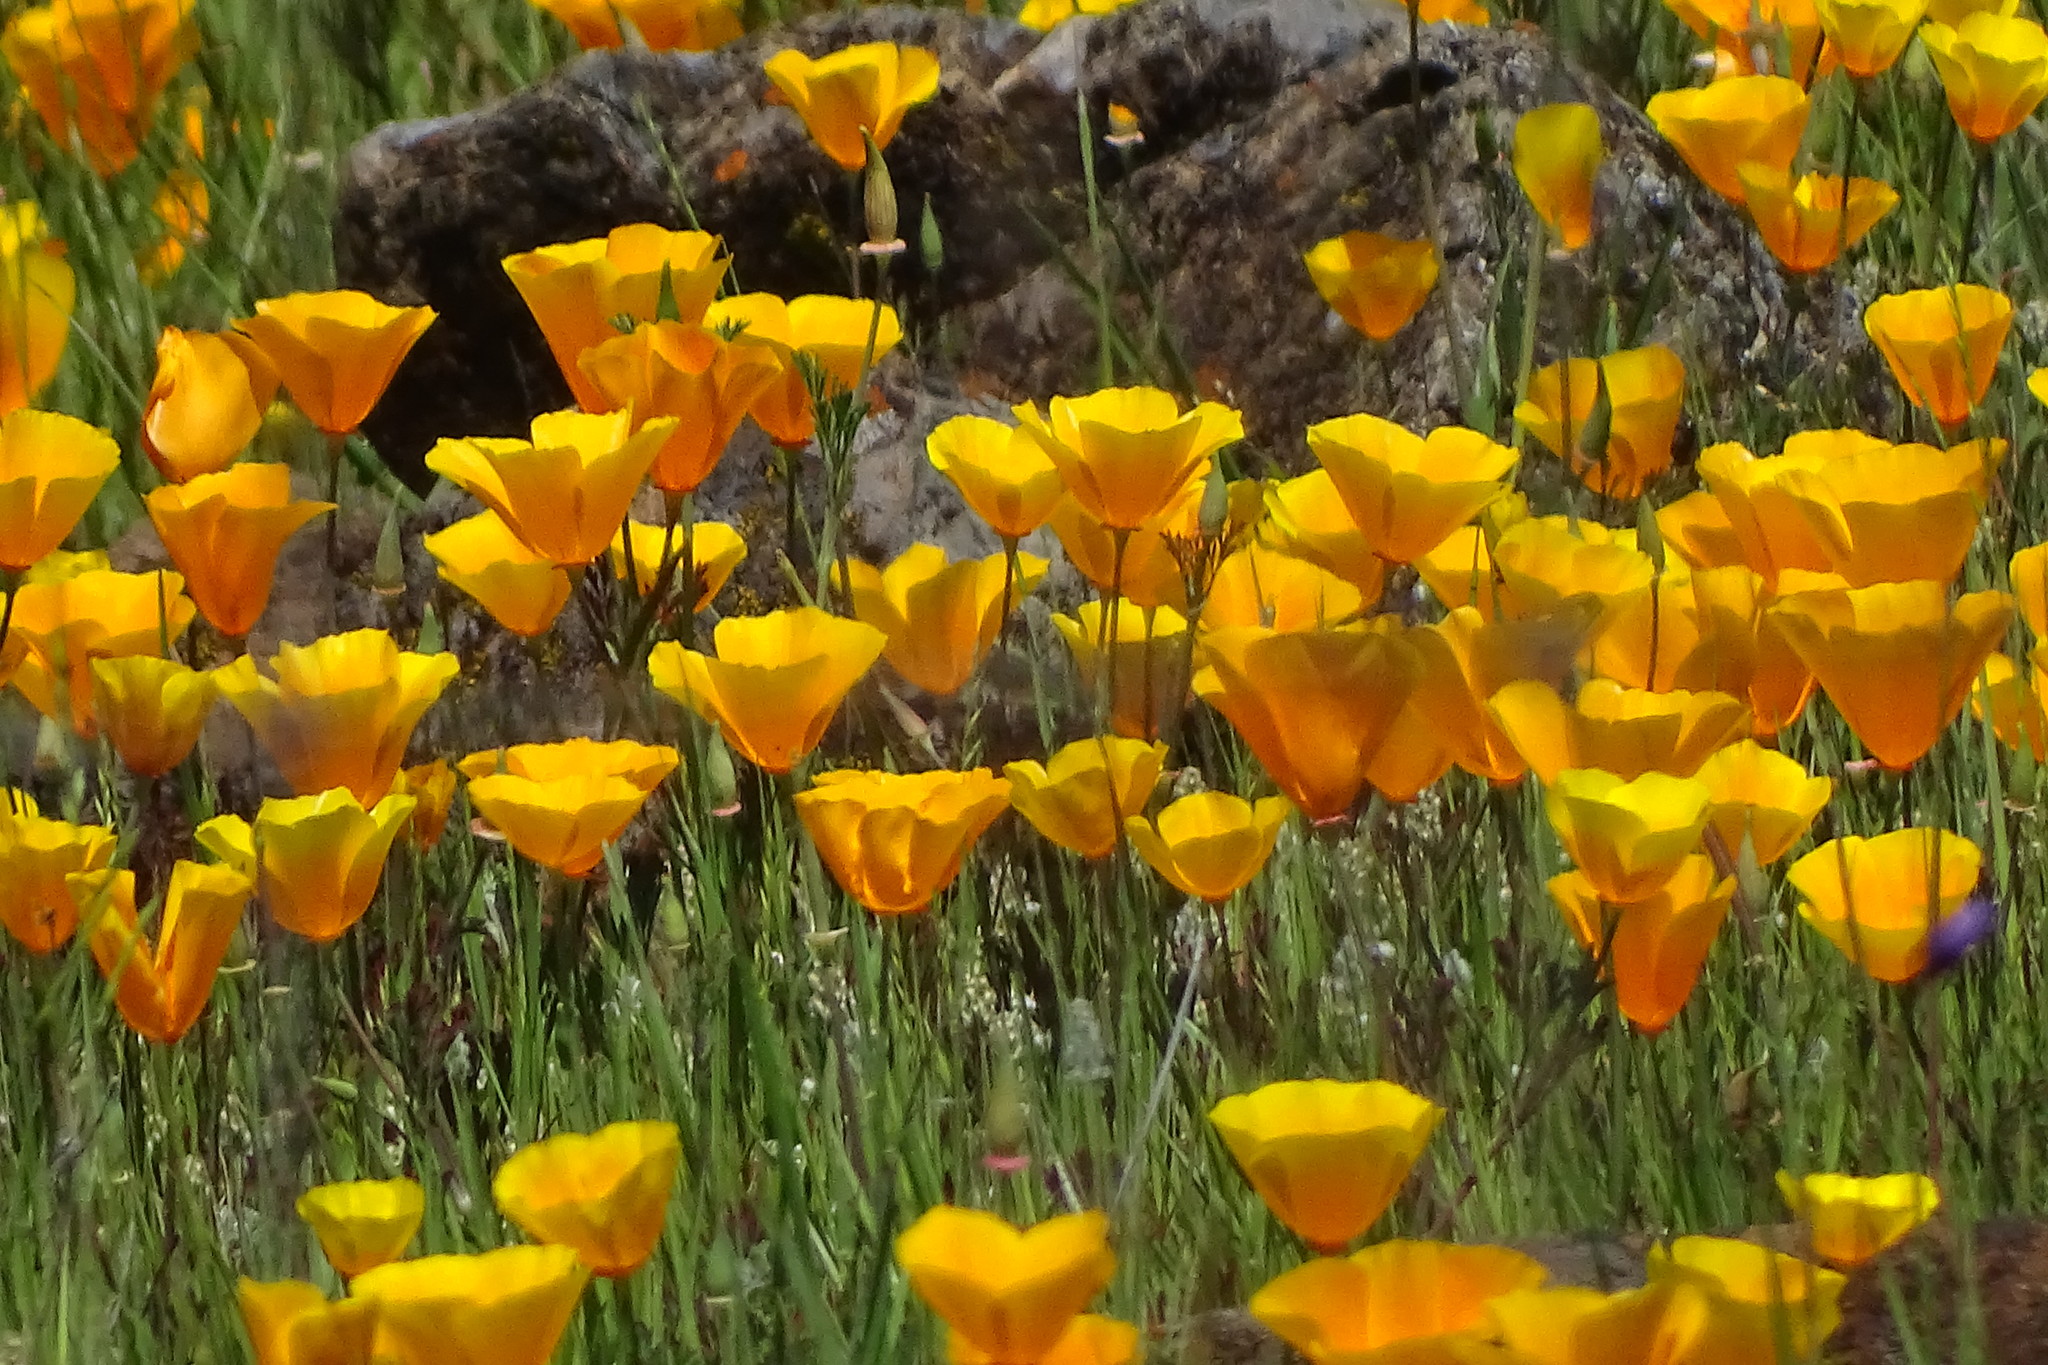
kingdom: Plantae
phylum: Tracheophyta
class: Magnoliopsida
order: Ranunculales
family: Papaveraceae
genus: Eschscholzia
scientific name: Eschscholzia californica
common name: California poppy
